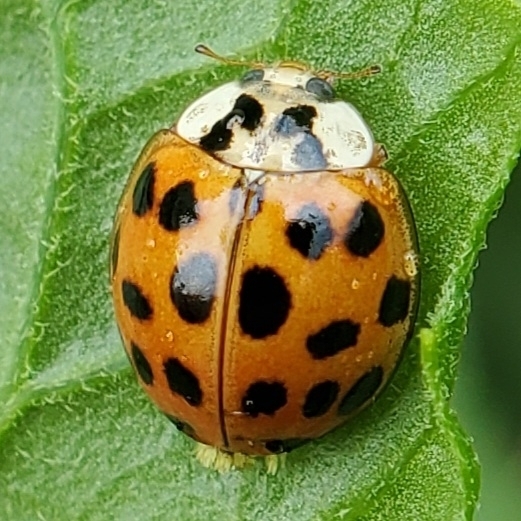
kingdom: Fungi
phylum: Ascomycota
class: Laboulbeniomycetes
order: Laboulbeniales
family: Laboulbeniaceae
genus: Hesperomyces
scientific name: Hesperomyces harmoniae
